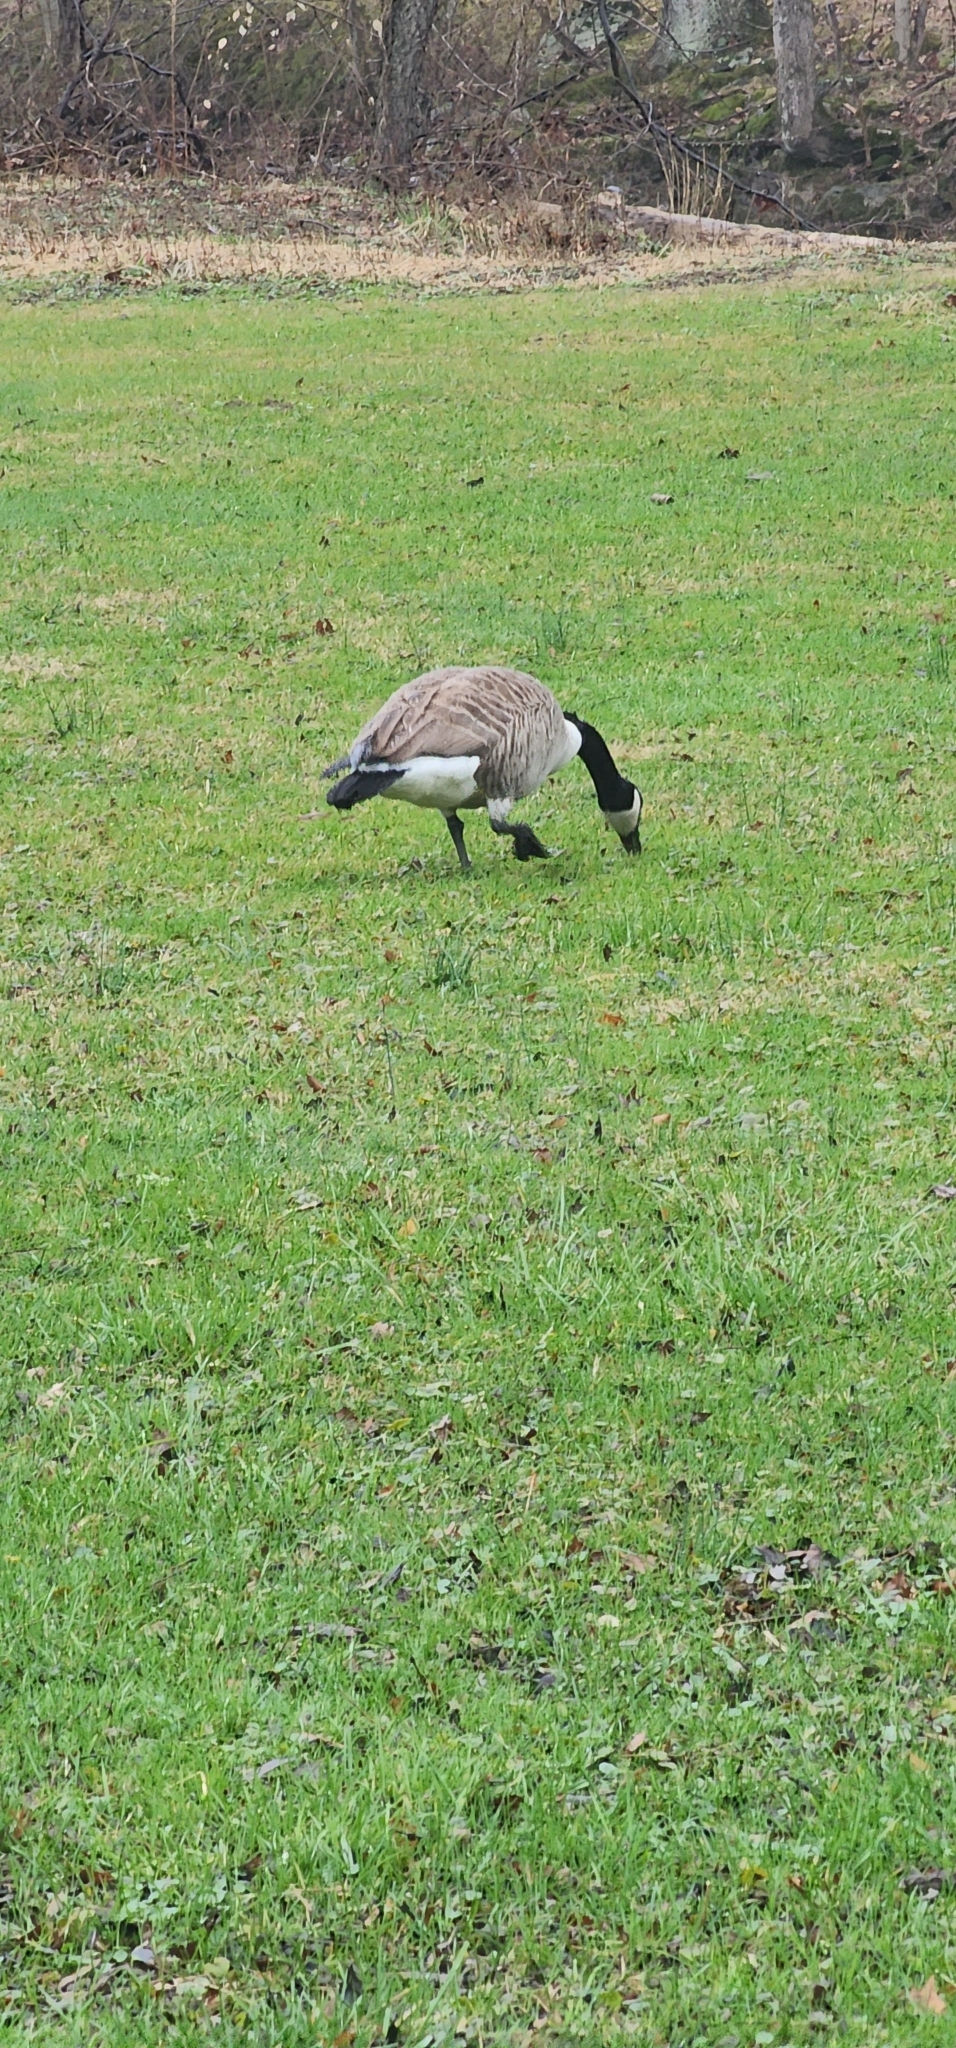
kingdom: Animalia
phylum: Chordata
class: Aves
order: Anseriformes
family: Anatidae
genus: Branta
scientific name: Branta canadensis
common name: Canada goose
